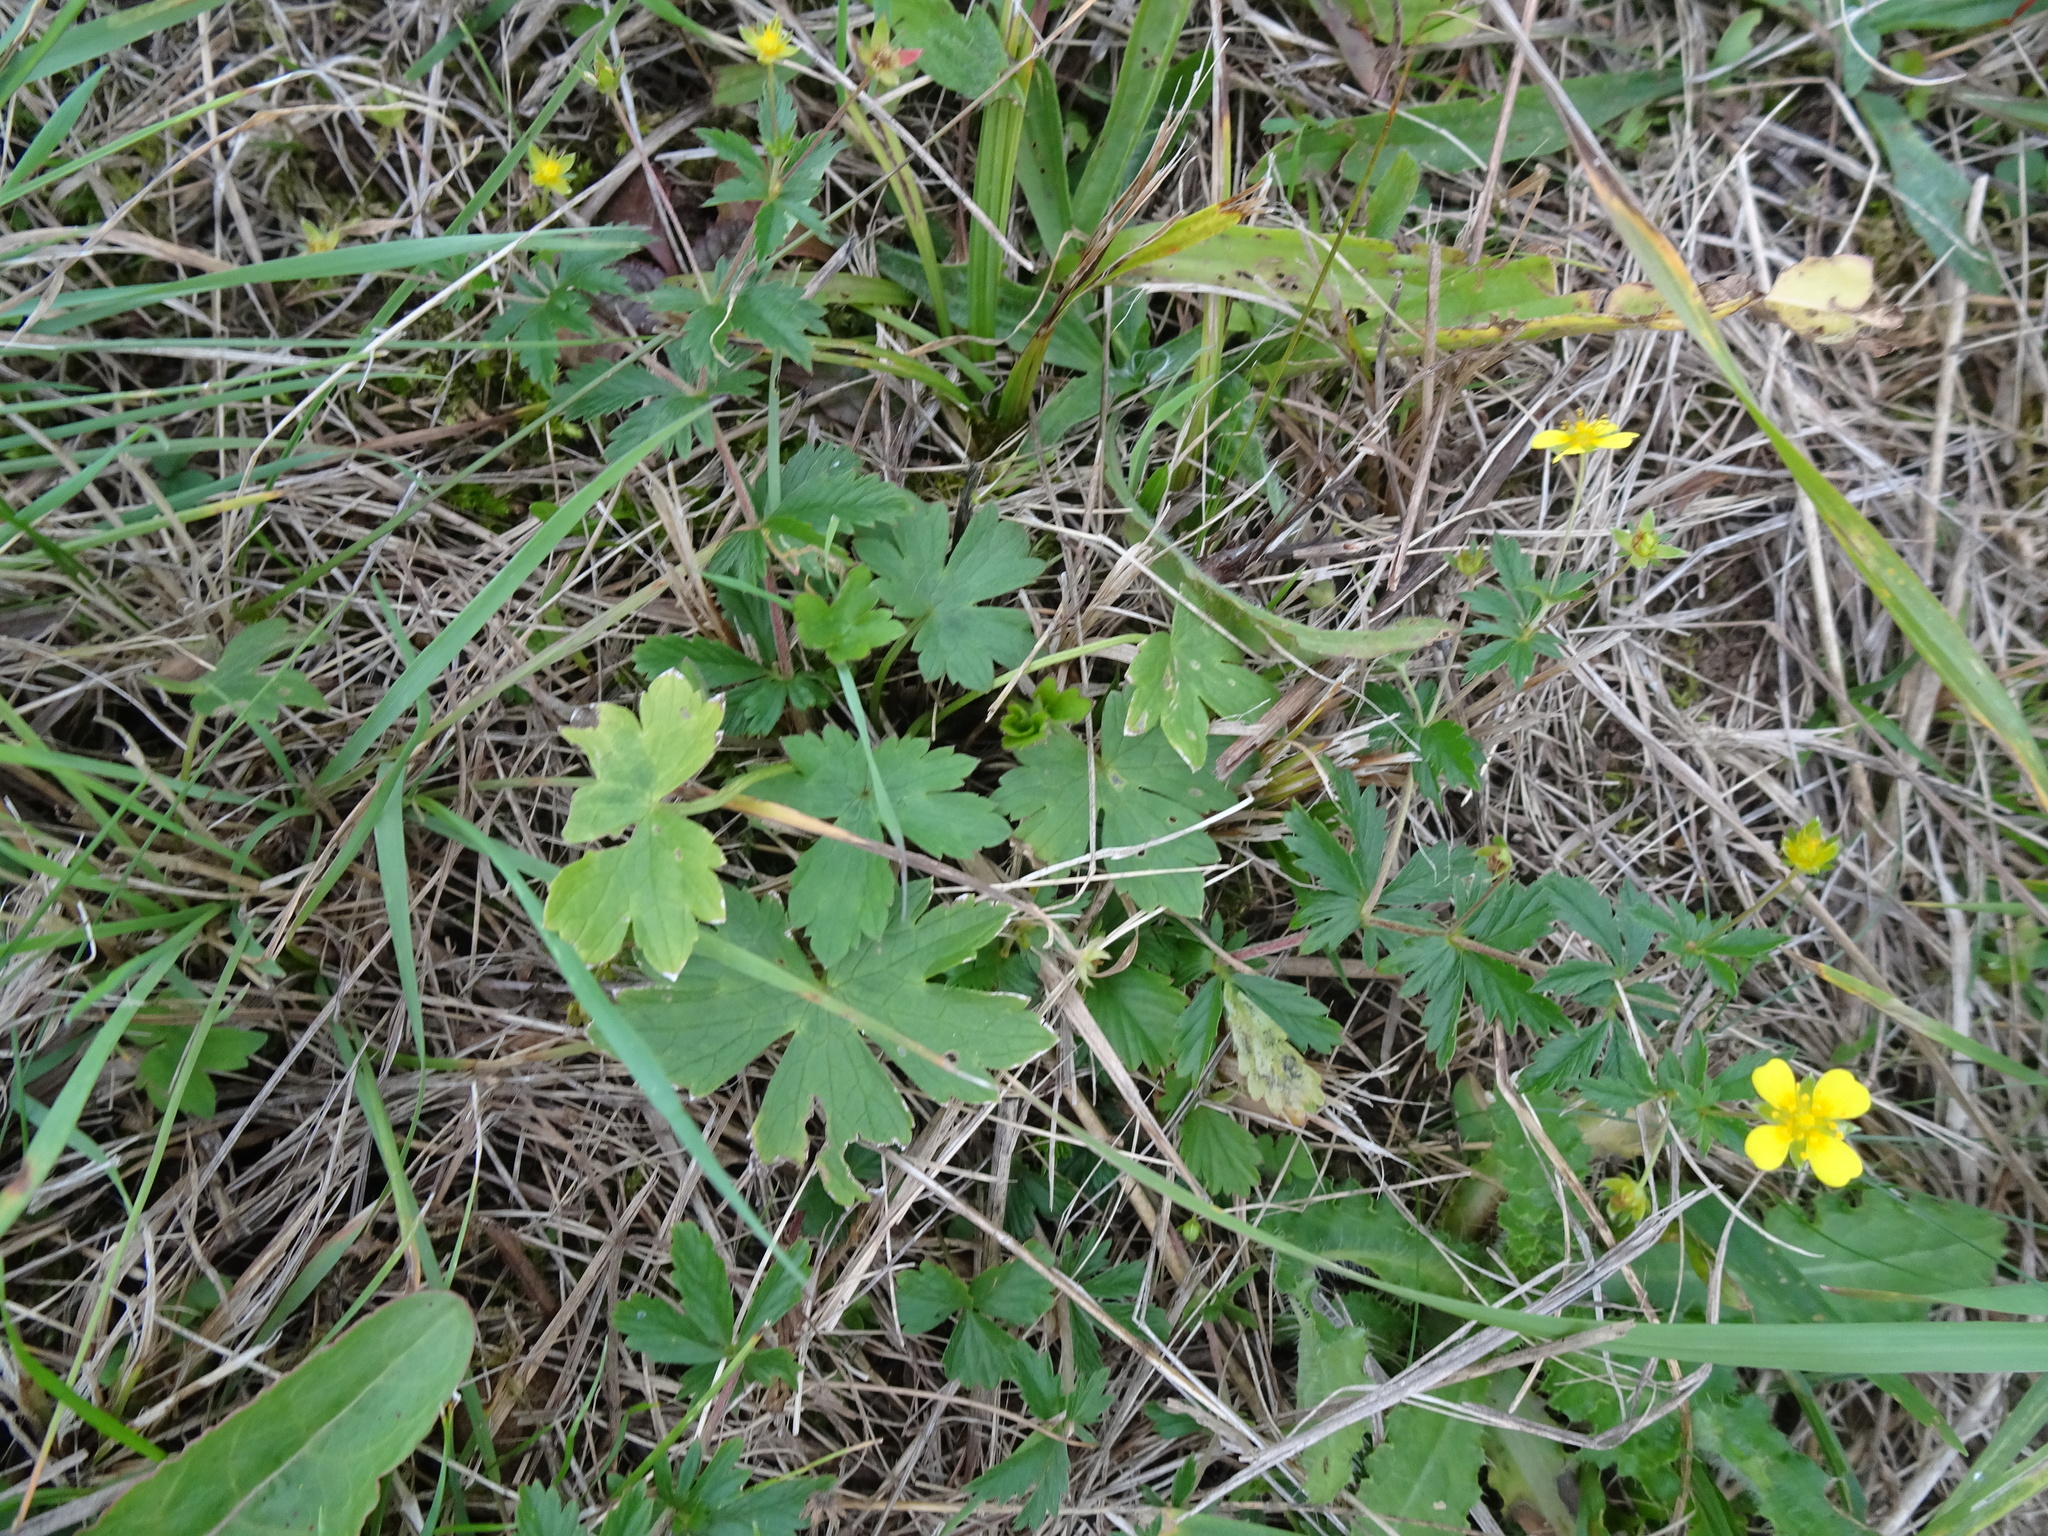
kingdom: Plantae
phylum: Tracheophyta
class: Magnoliopsida
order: Rosales
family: Rosaceae
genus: Potentilla
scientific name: Potentilla erecta
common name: Tormentil
